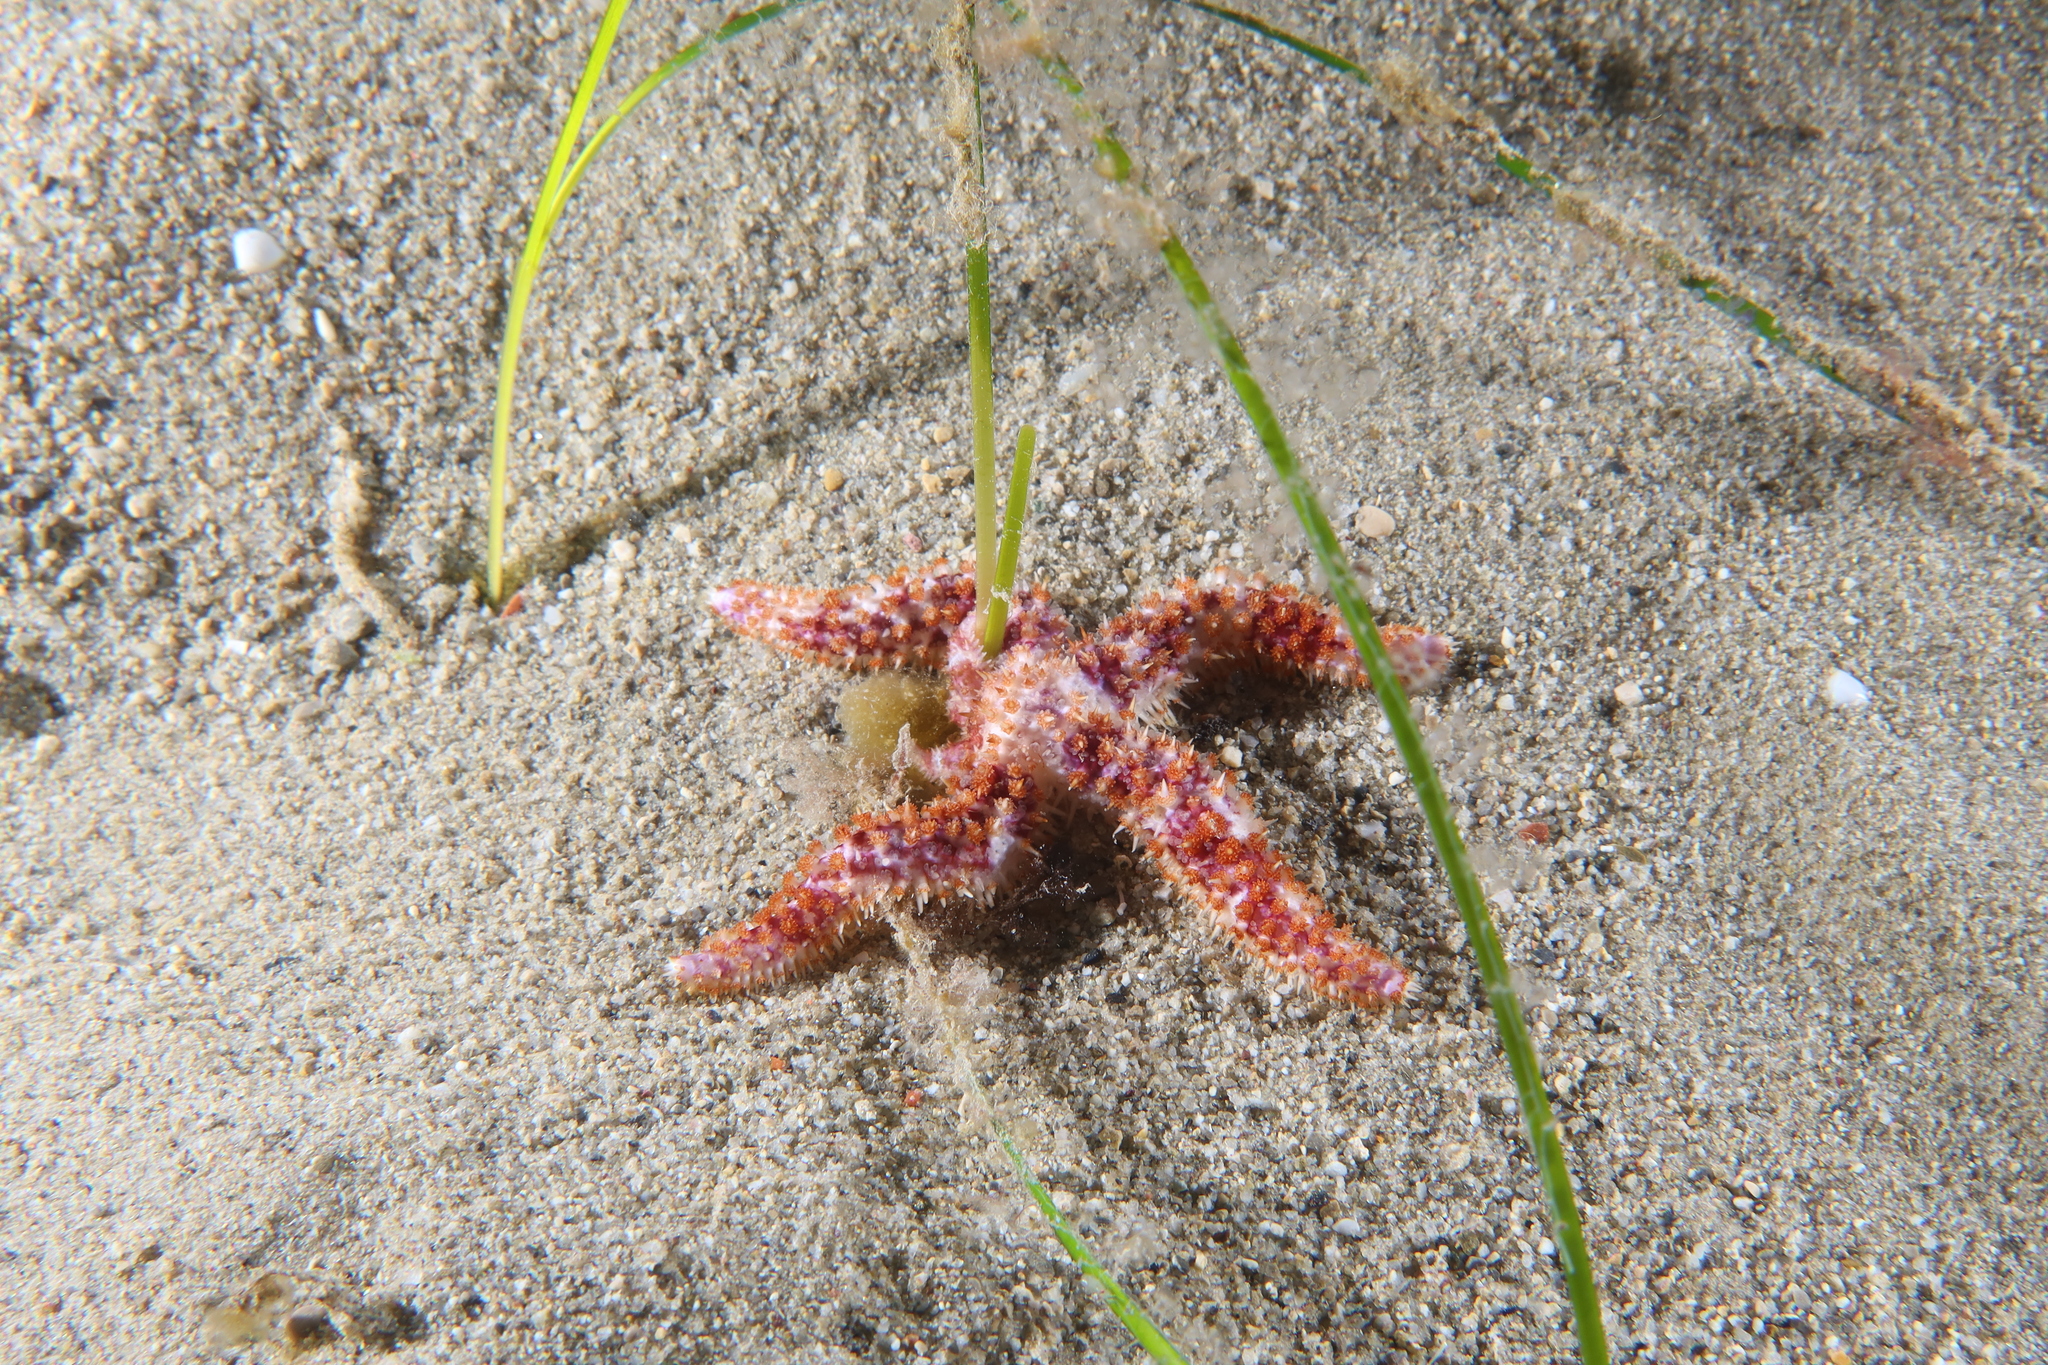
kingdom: Animalia
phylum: Echinodermata
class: Asteroidea
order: Forcipulatida
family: Asteriidae
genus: Coscinasterias
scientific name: Coscinasterias tenuispina
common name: Blue spiny starfish
